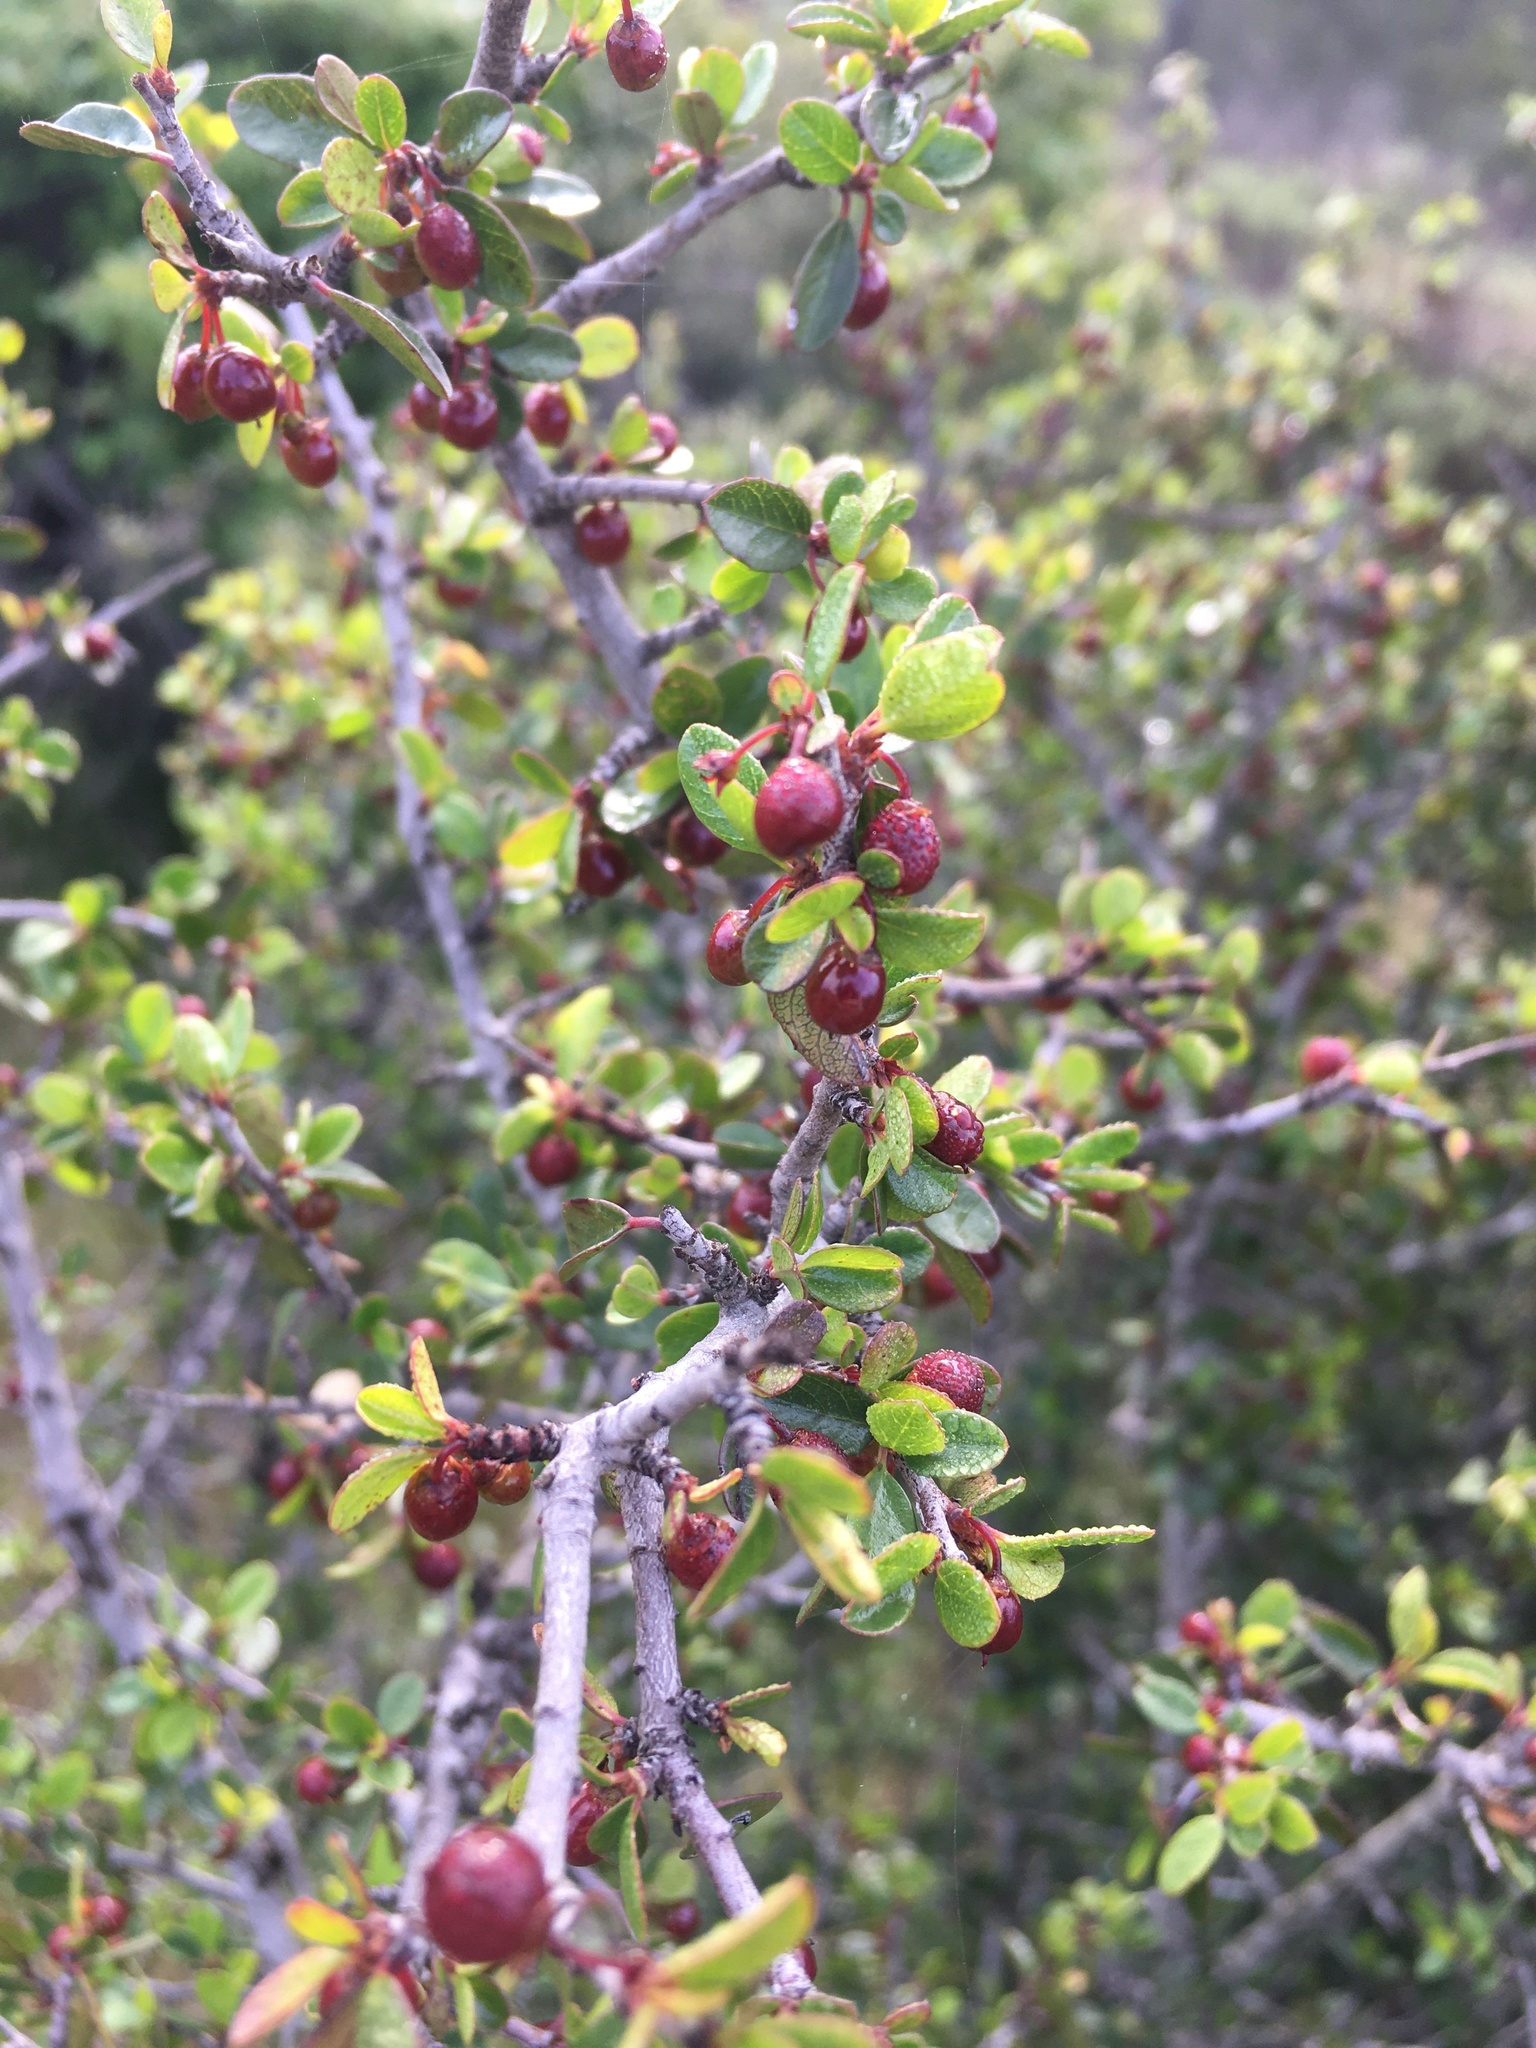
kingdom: Plantae
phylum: Tracheophyta
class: Magnoliopsida
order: Rosales
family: Rhamnaceae
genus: Endotropis
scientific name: Endotropis crocea
